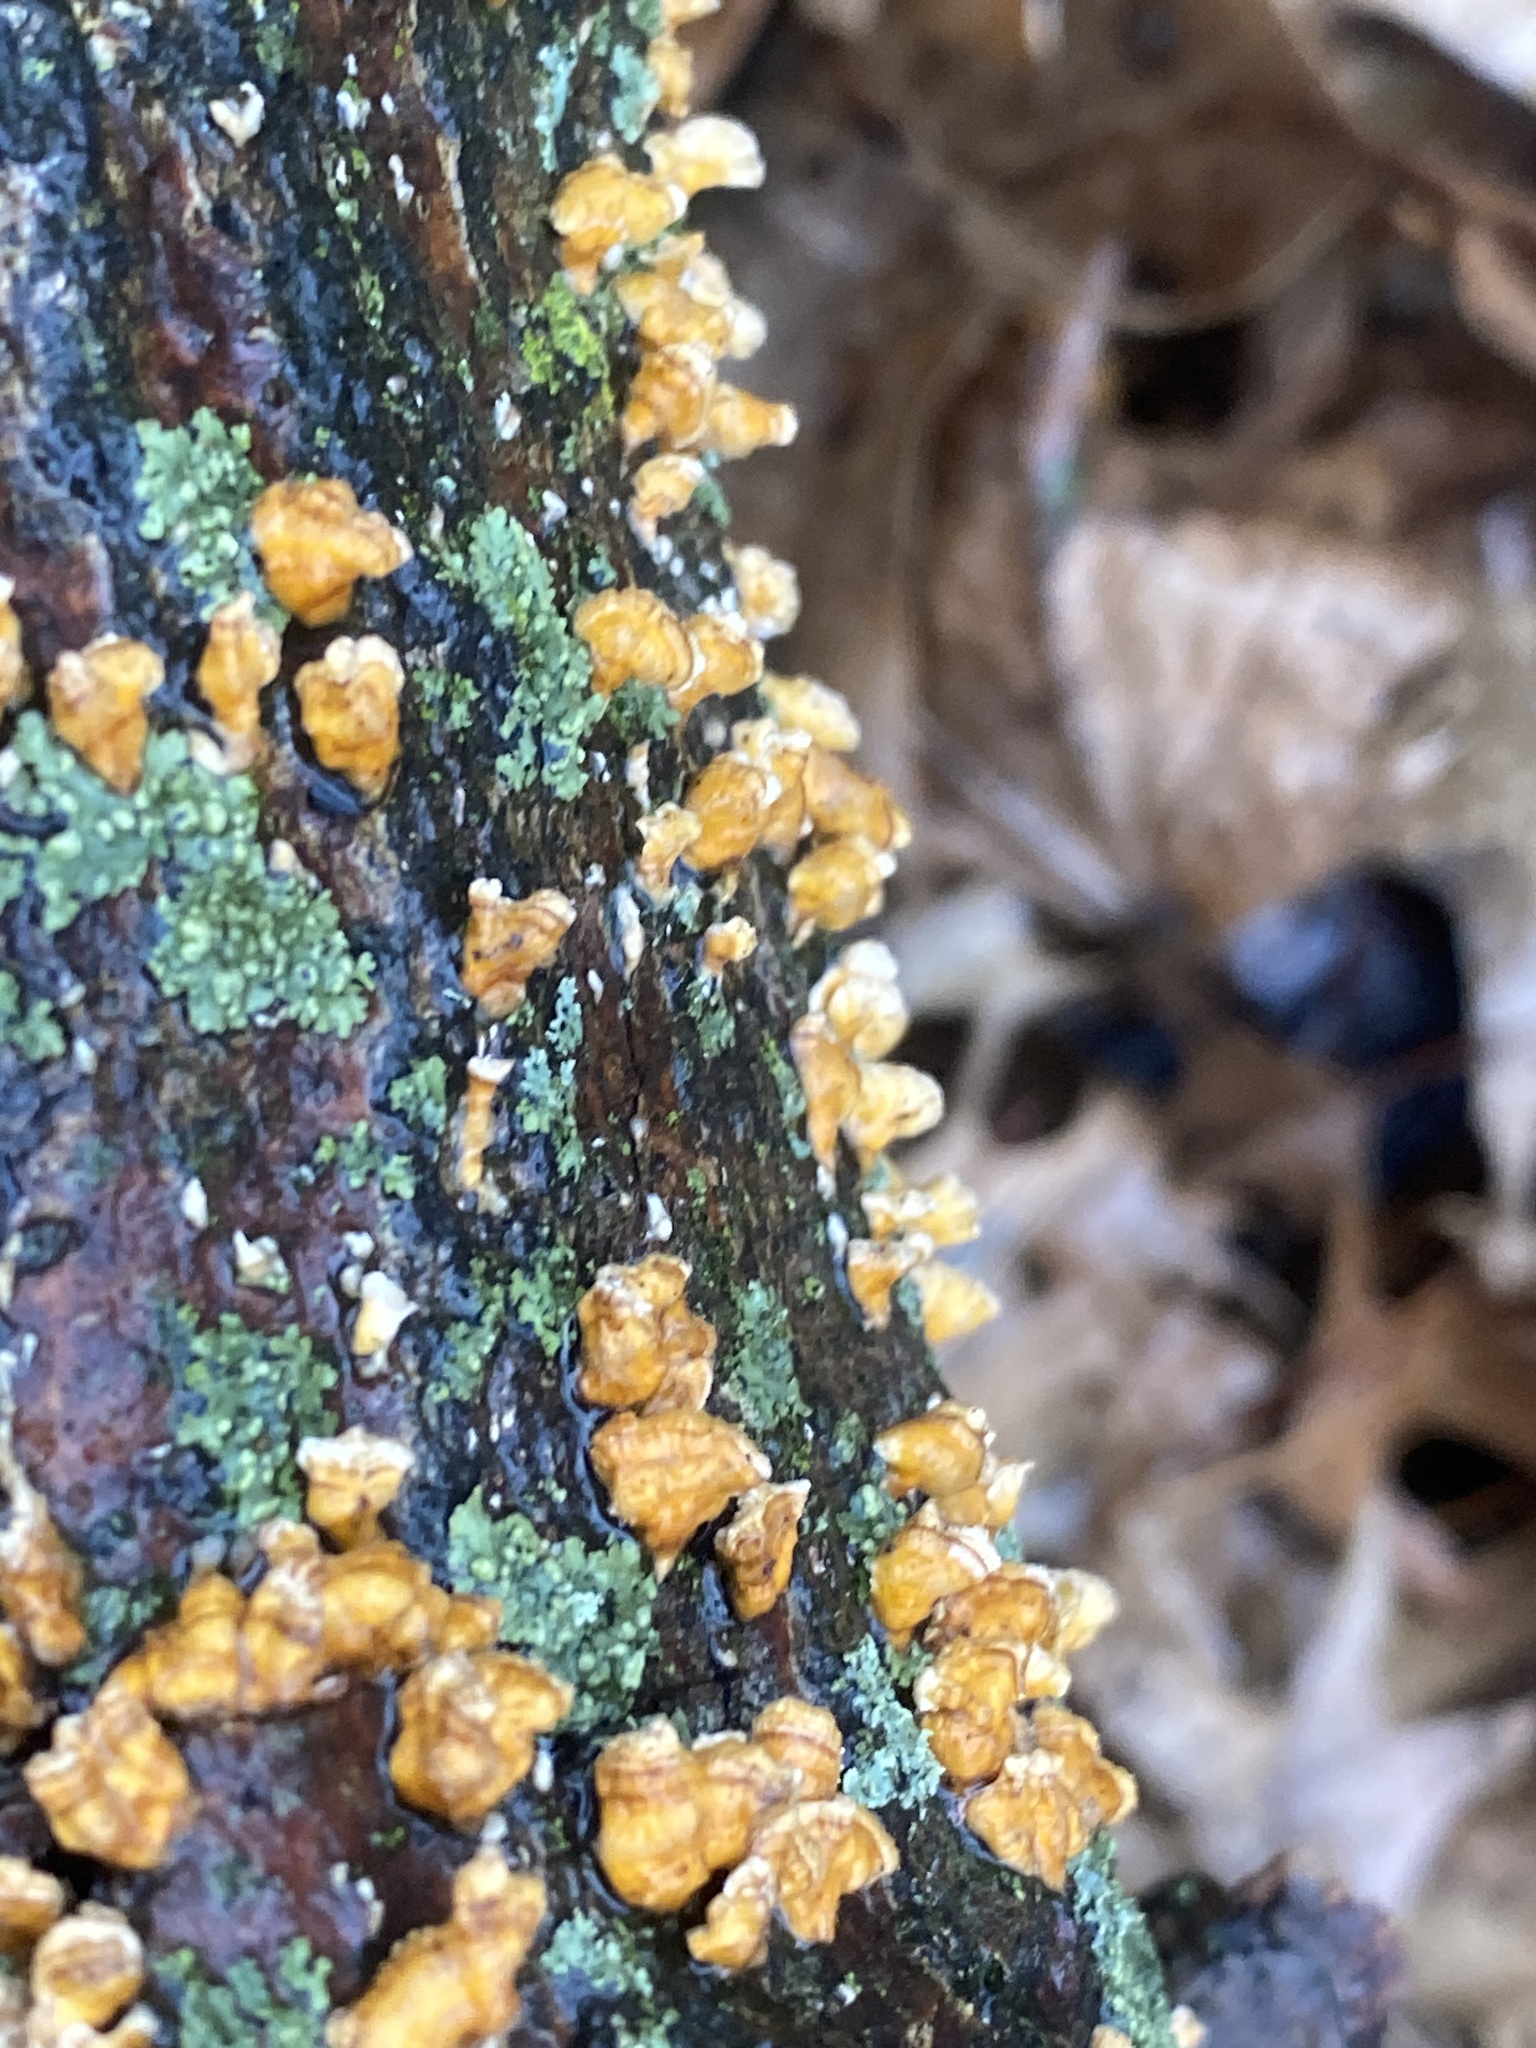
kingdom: Fungi
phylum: Basidiomycota
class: Agaricomycetes
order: Russulales
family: Stereaceae
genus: Stereum
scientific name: Stereum complicatum
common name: Crowded parchment
